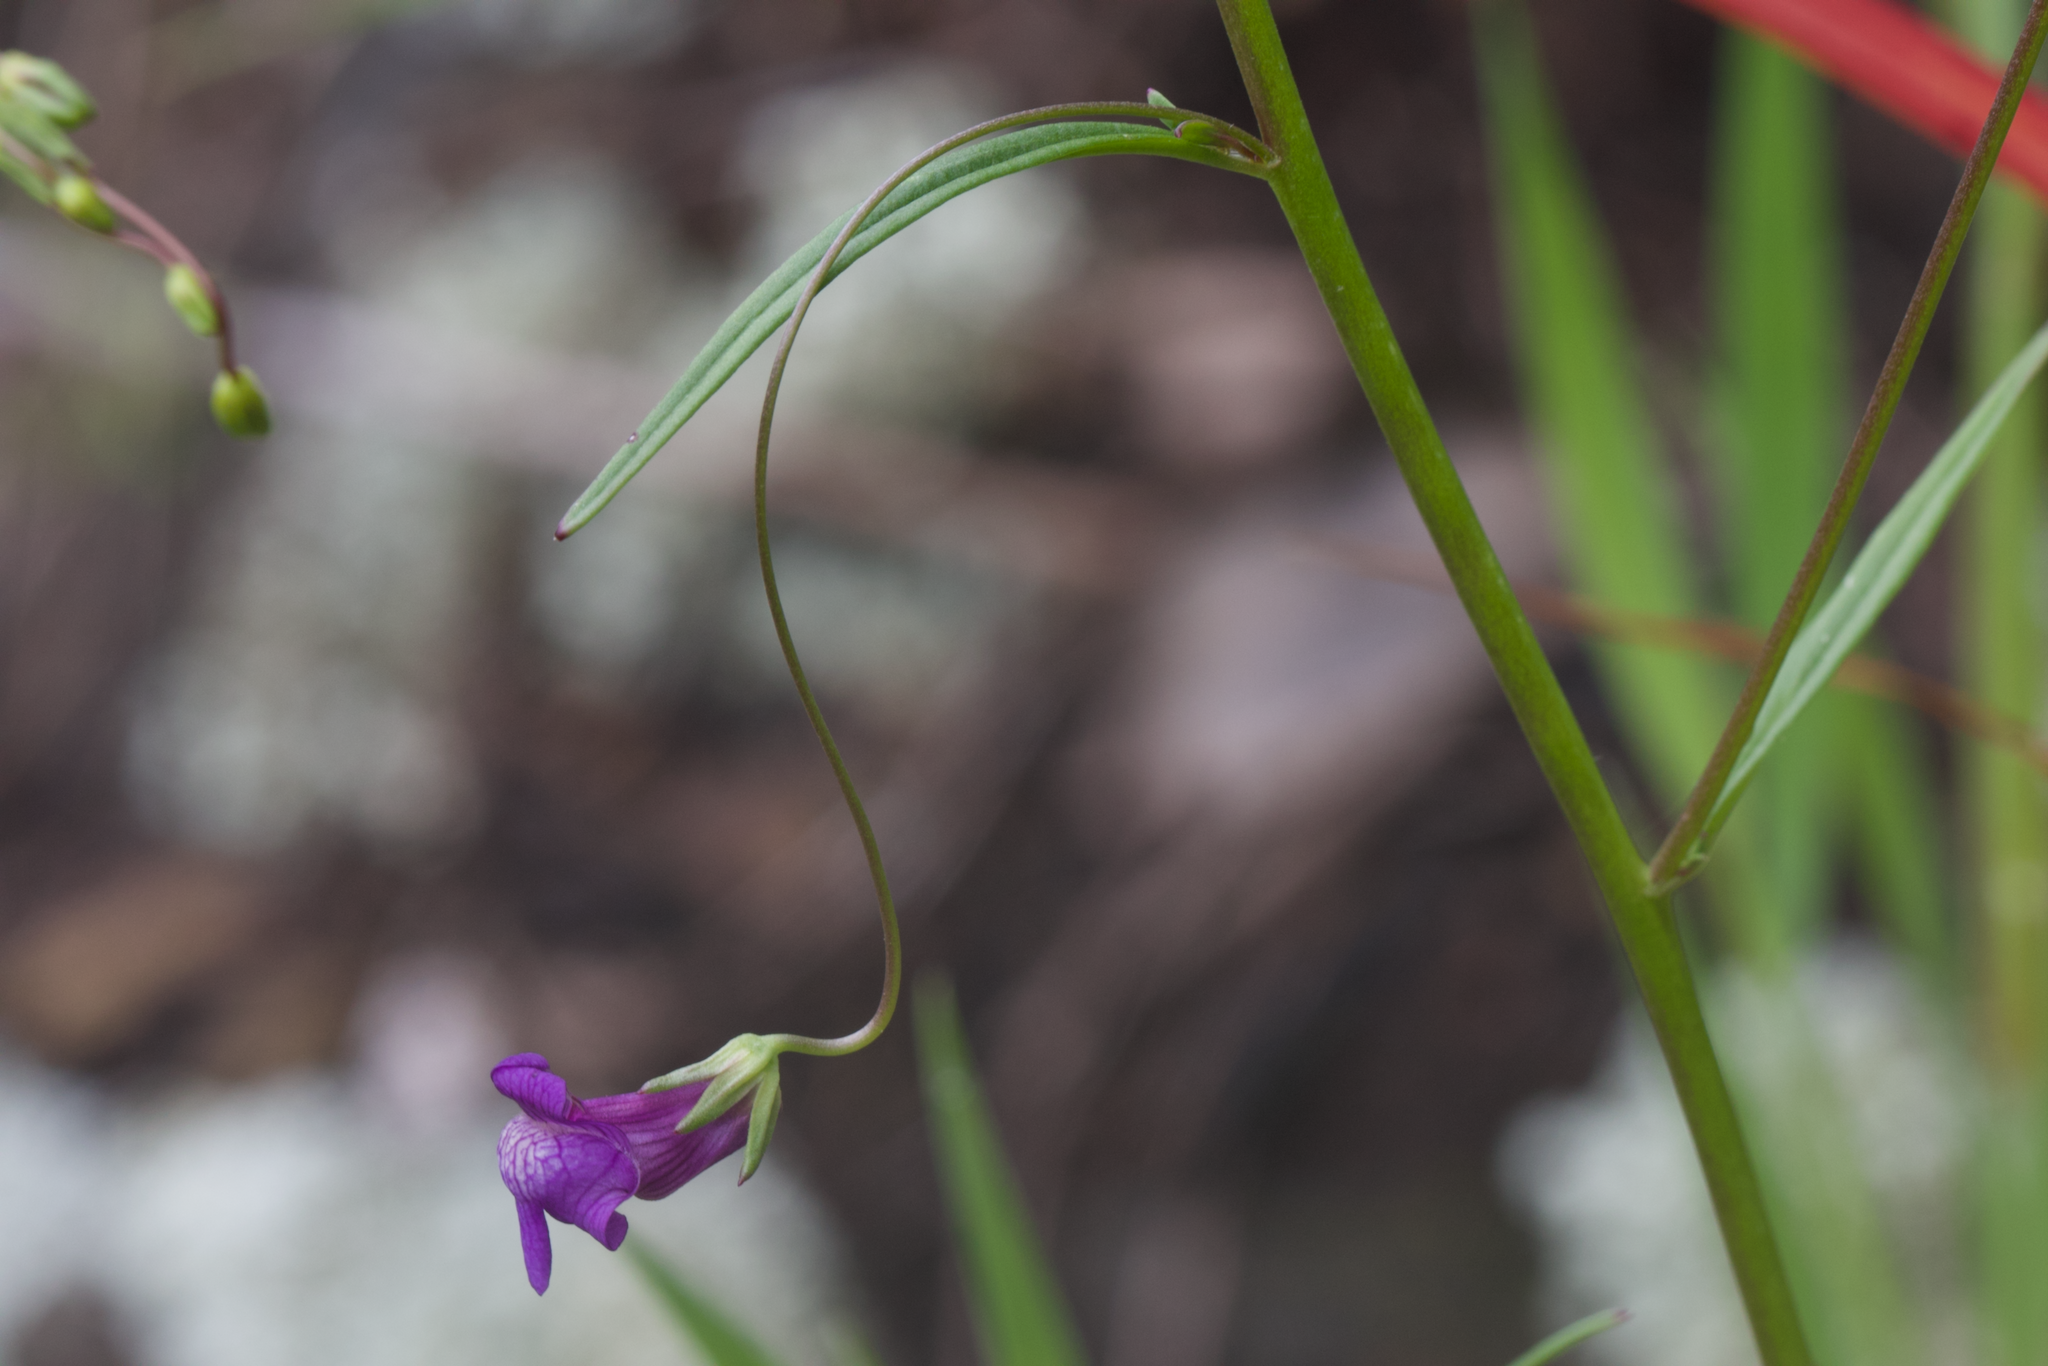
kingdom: Plantae
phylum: Tracheophyta
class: Magnoliopsida
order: Lamiales
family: Plantaginaceae
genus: Neogaerrhinum
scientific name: Neogaerrhinum strictum
